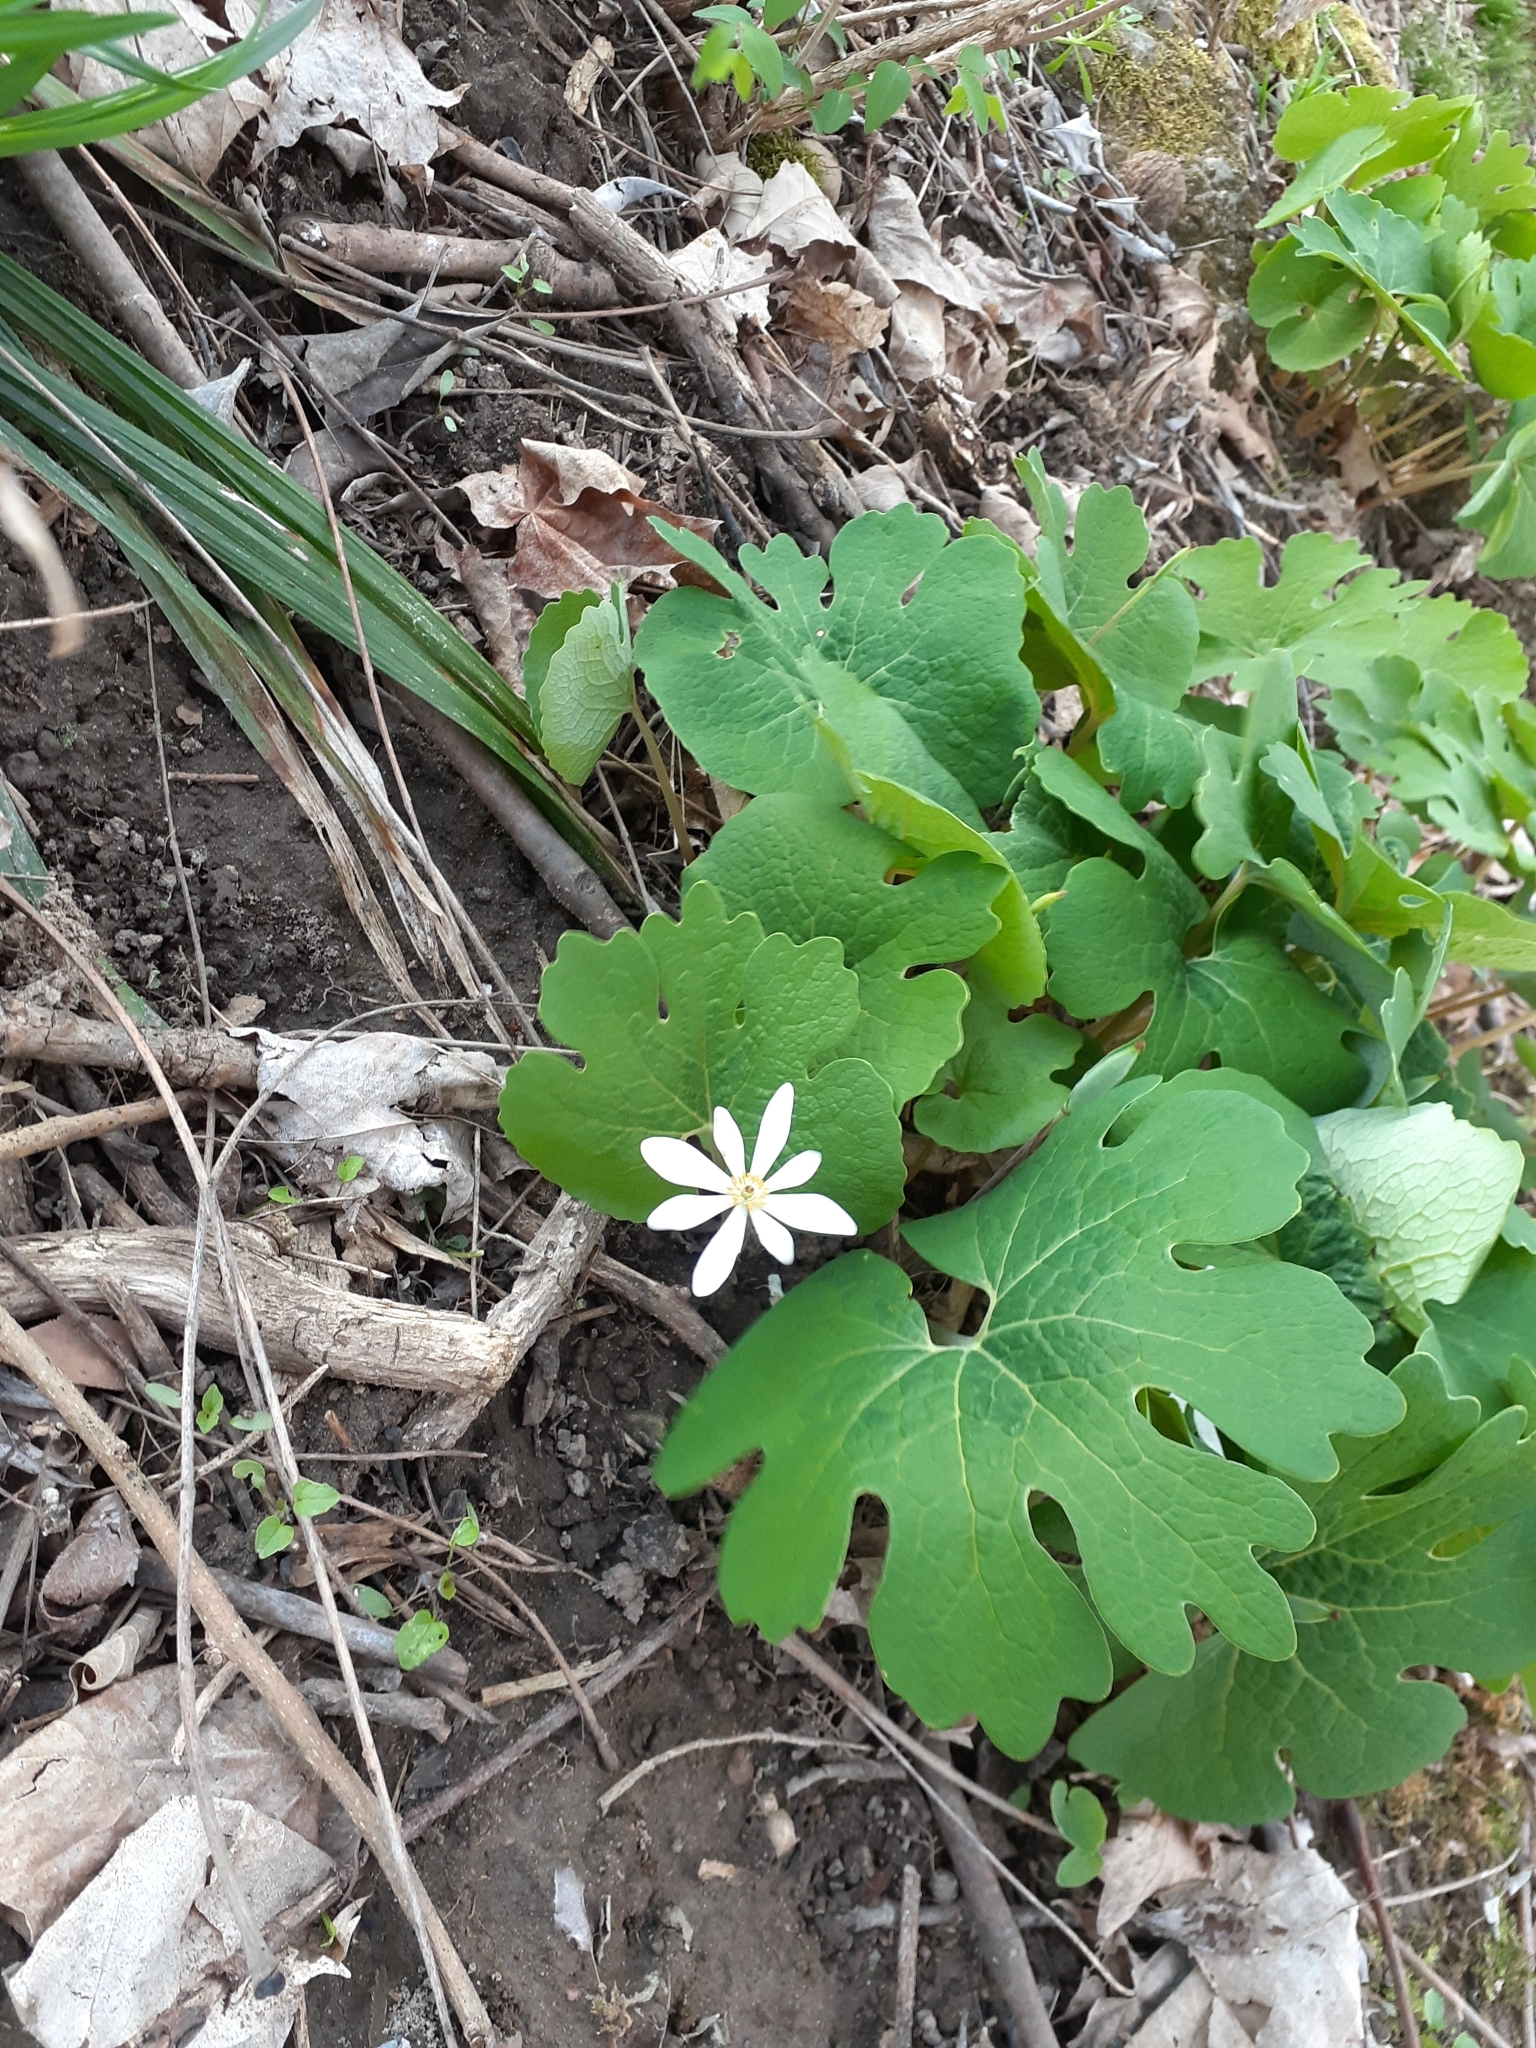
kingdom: Plantae
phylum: Tracheophyta
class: Magnoliopsida
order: Ranunculales
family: Papaveraceae
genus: Sanguinaria
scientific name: Sanguinaria canadensis
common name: Bloodroot
